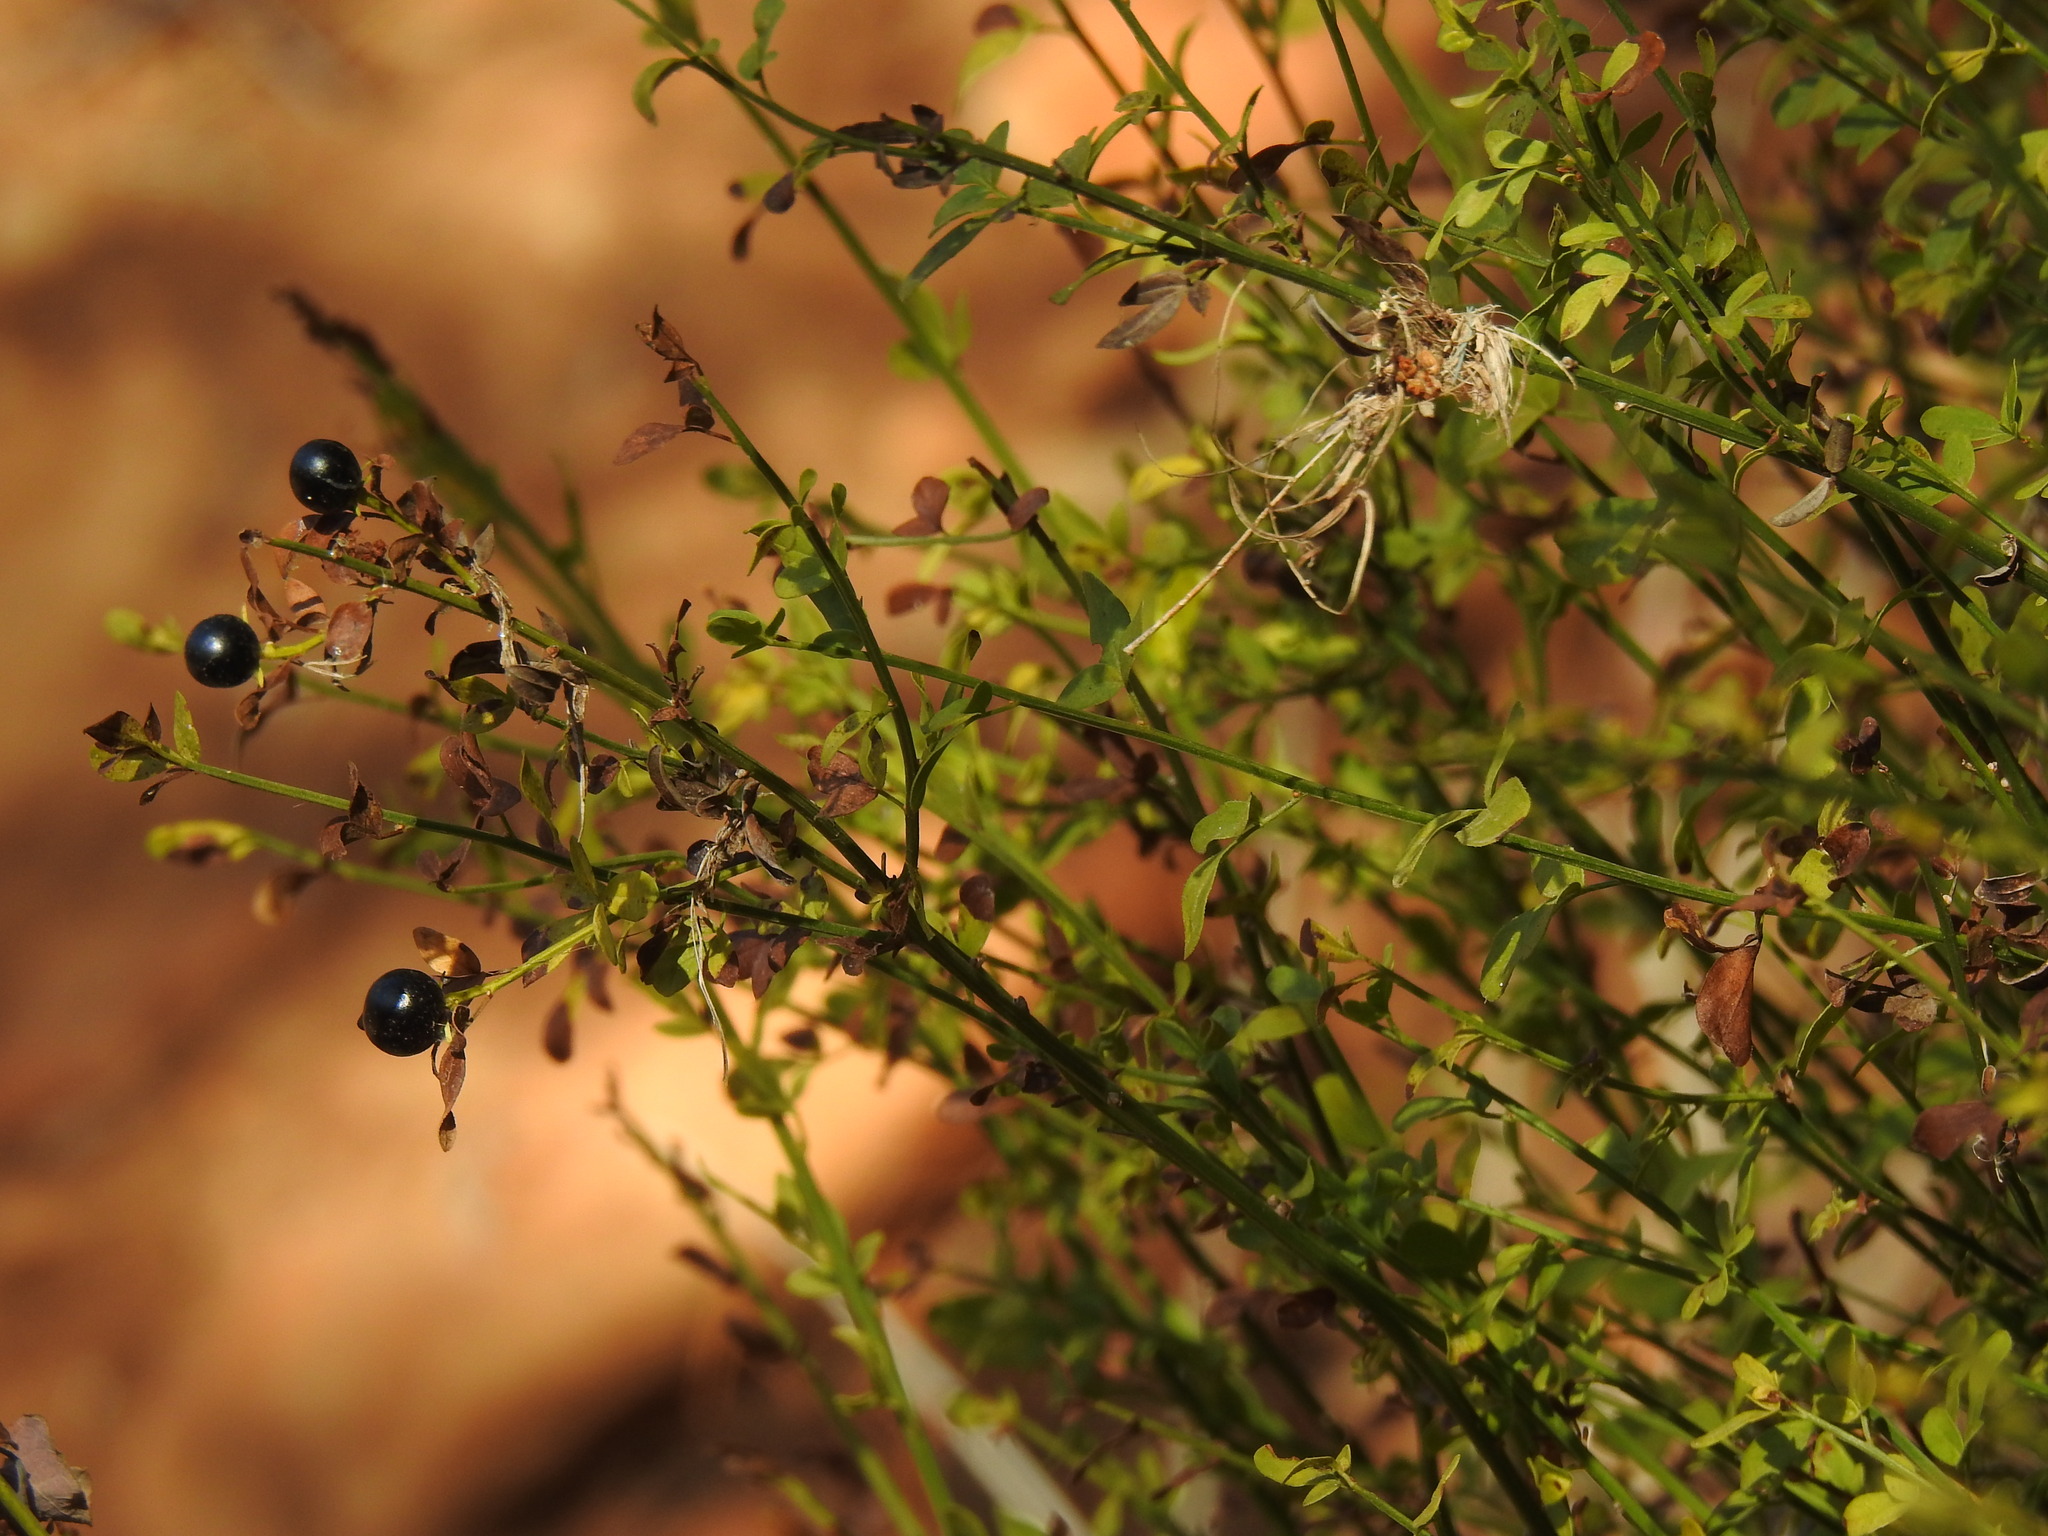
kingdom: Plantae
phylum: Tracheophyta
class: Magnoliopsida
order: Lamiales
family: Oleaceae
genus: Chrysojasminum
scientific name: Chrysojasminum fruticans
